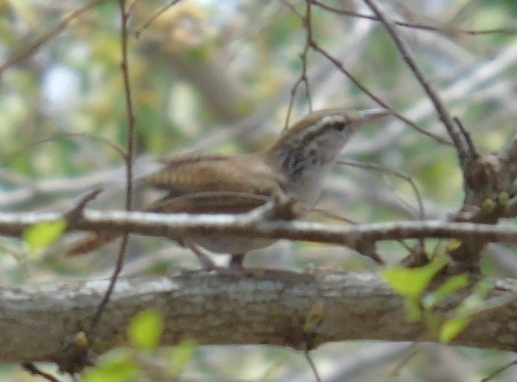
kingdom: Animalia
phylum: Chordata
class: Aves
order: Passeriformes
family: Troglodytidae
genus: Thryophilus
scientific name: Thryophilus sinaloa
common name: Sinaloa wren
